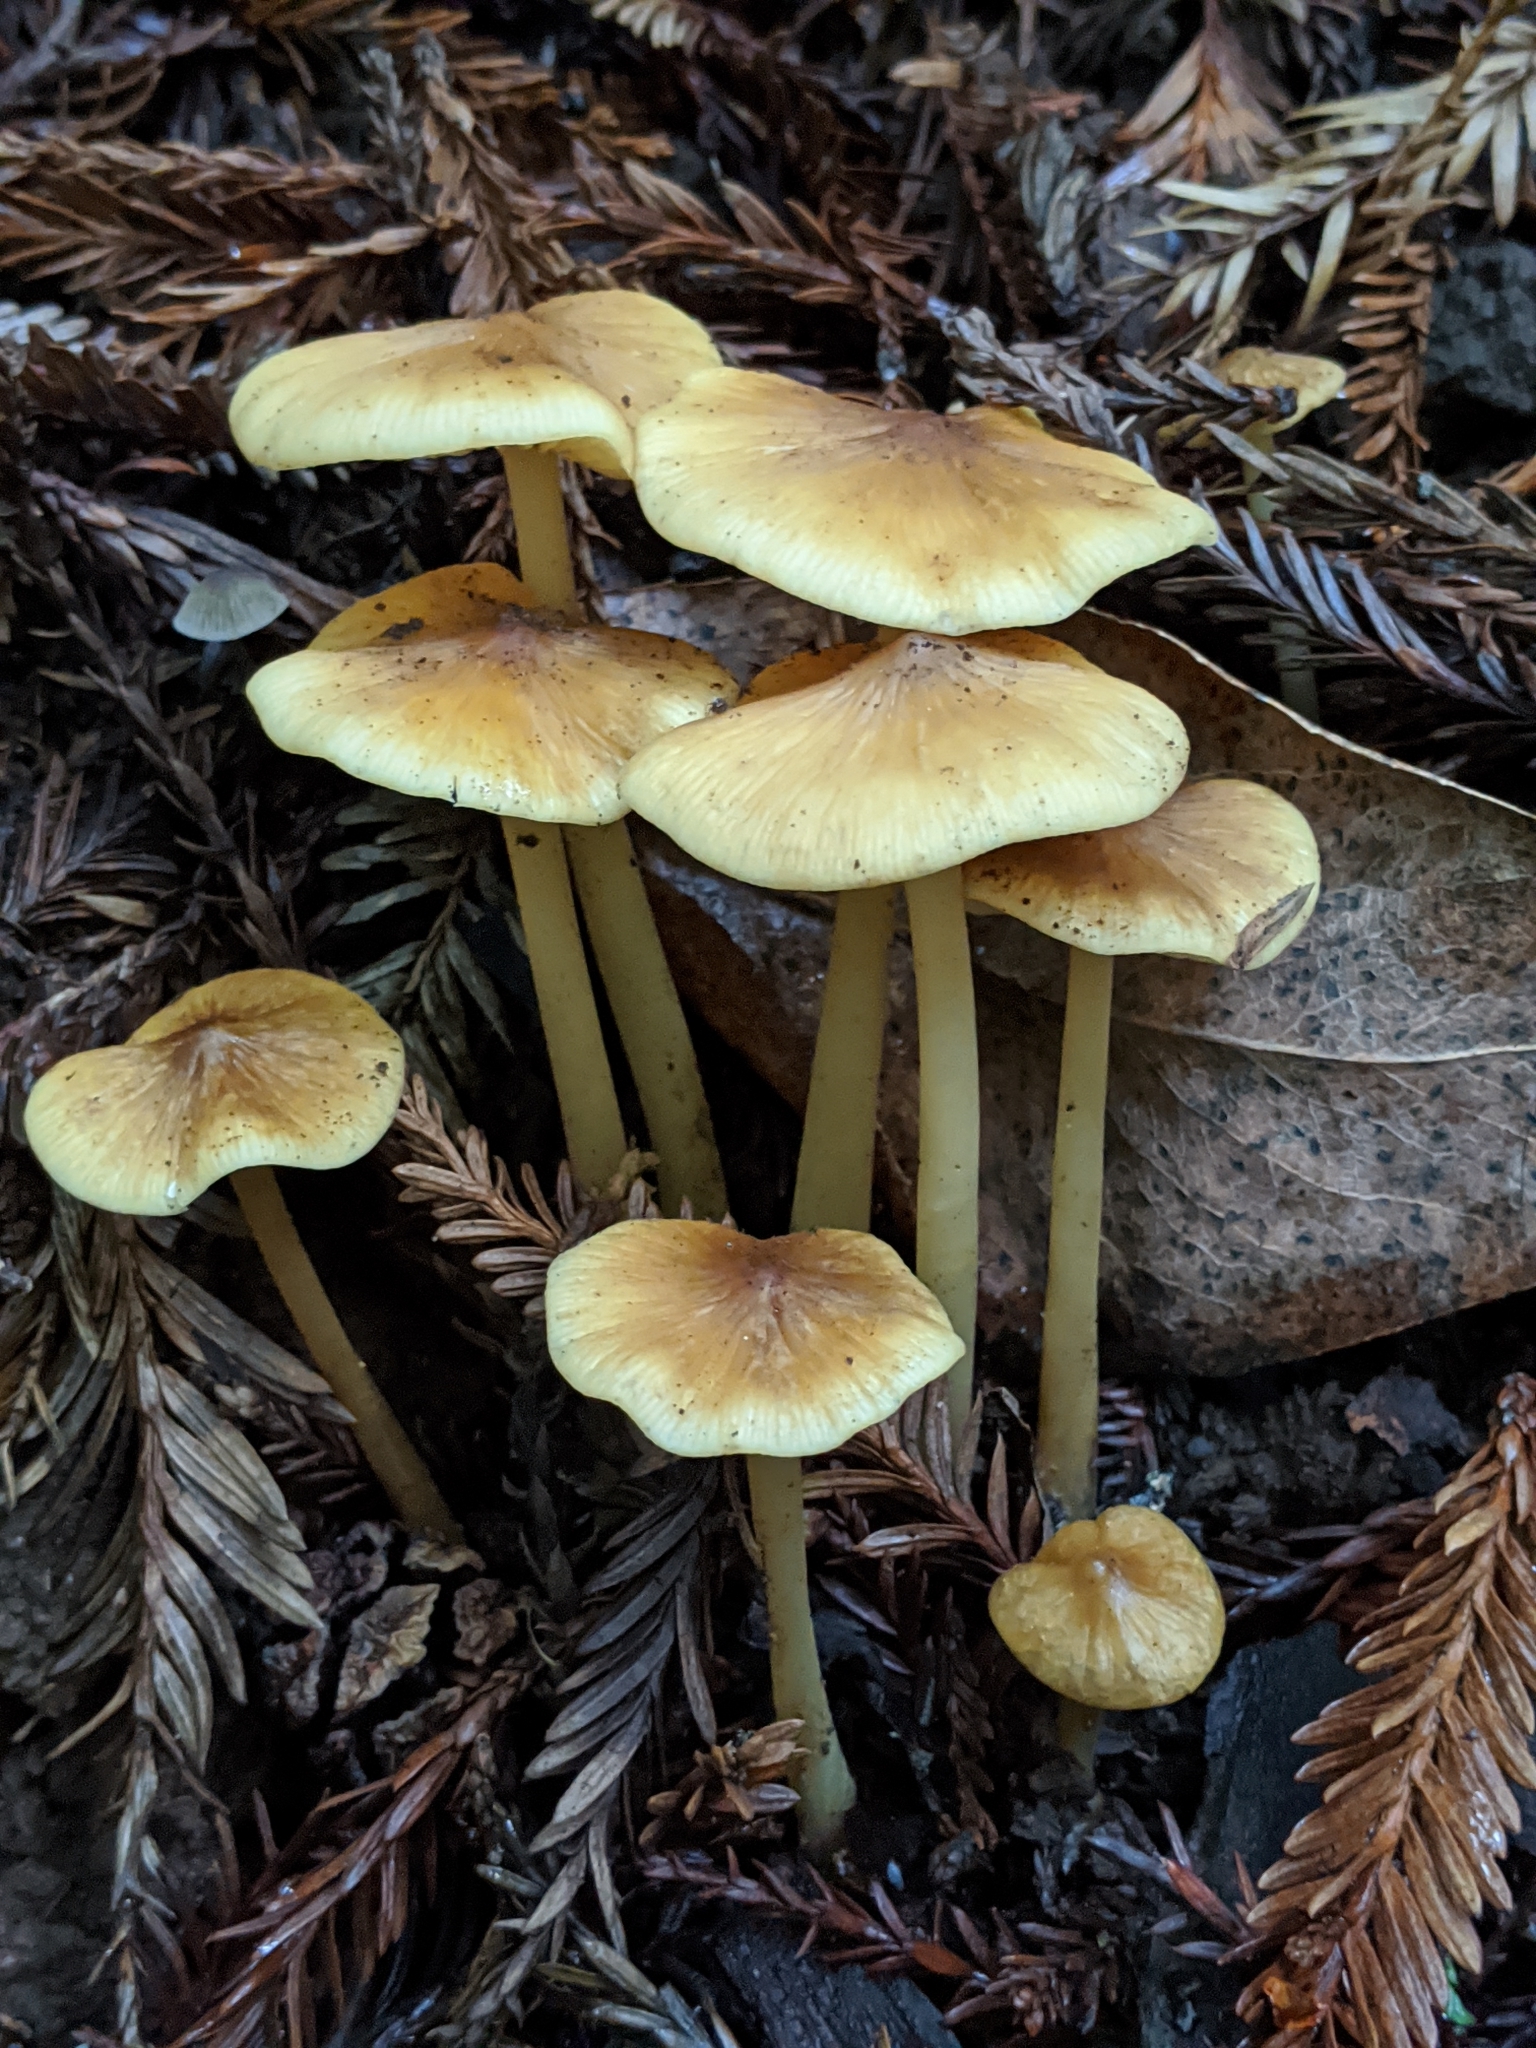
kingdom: Fungi
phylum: Basidiomycota
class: Agaricomycetes
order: Agaricales
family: Tricholomataceae
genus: Caulorhiza
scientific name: Caulorhiza umbonata
